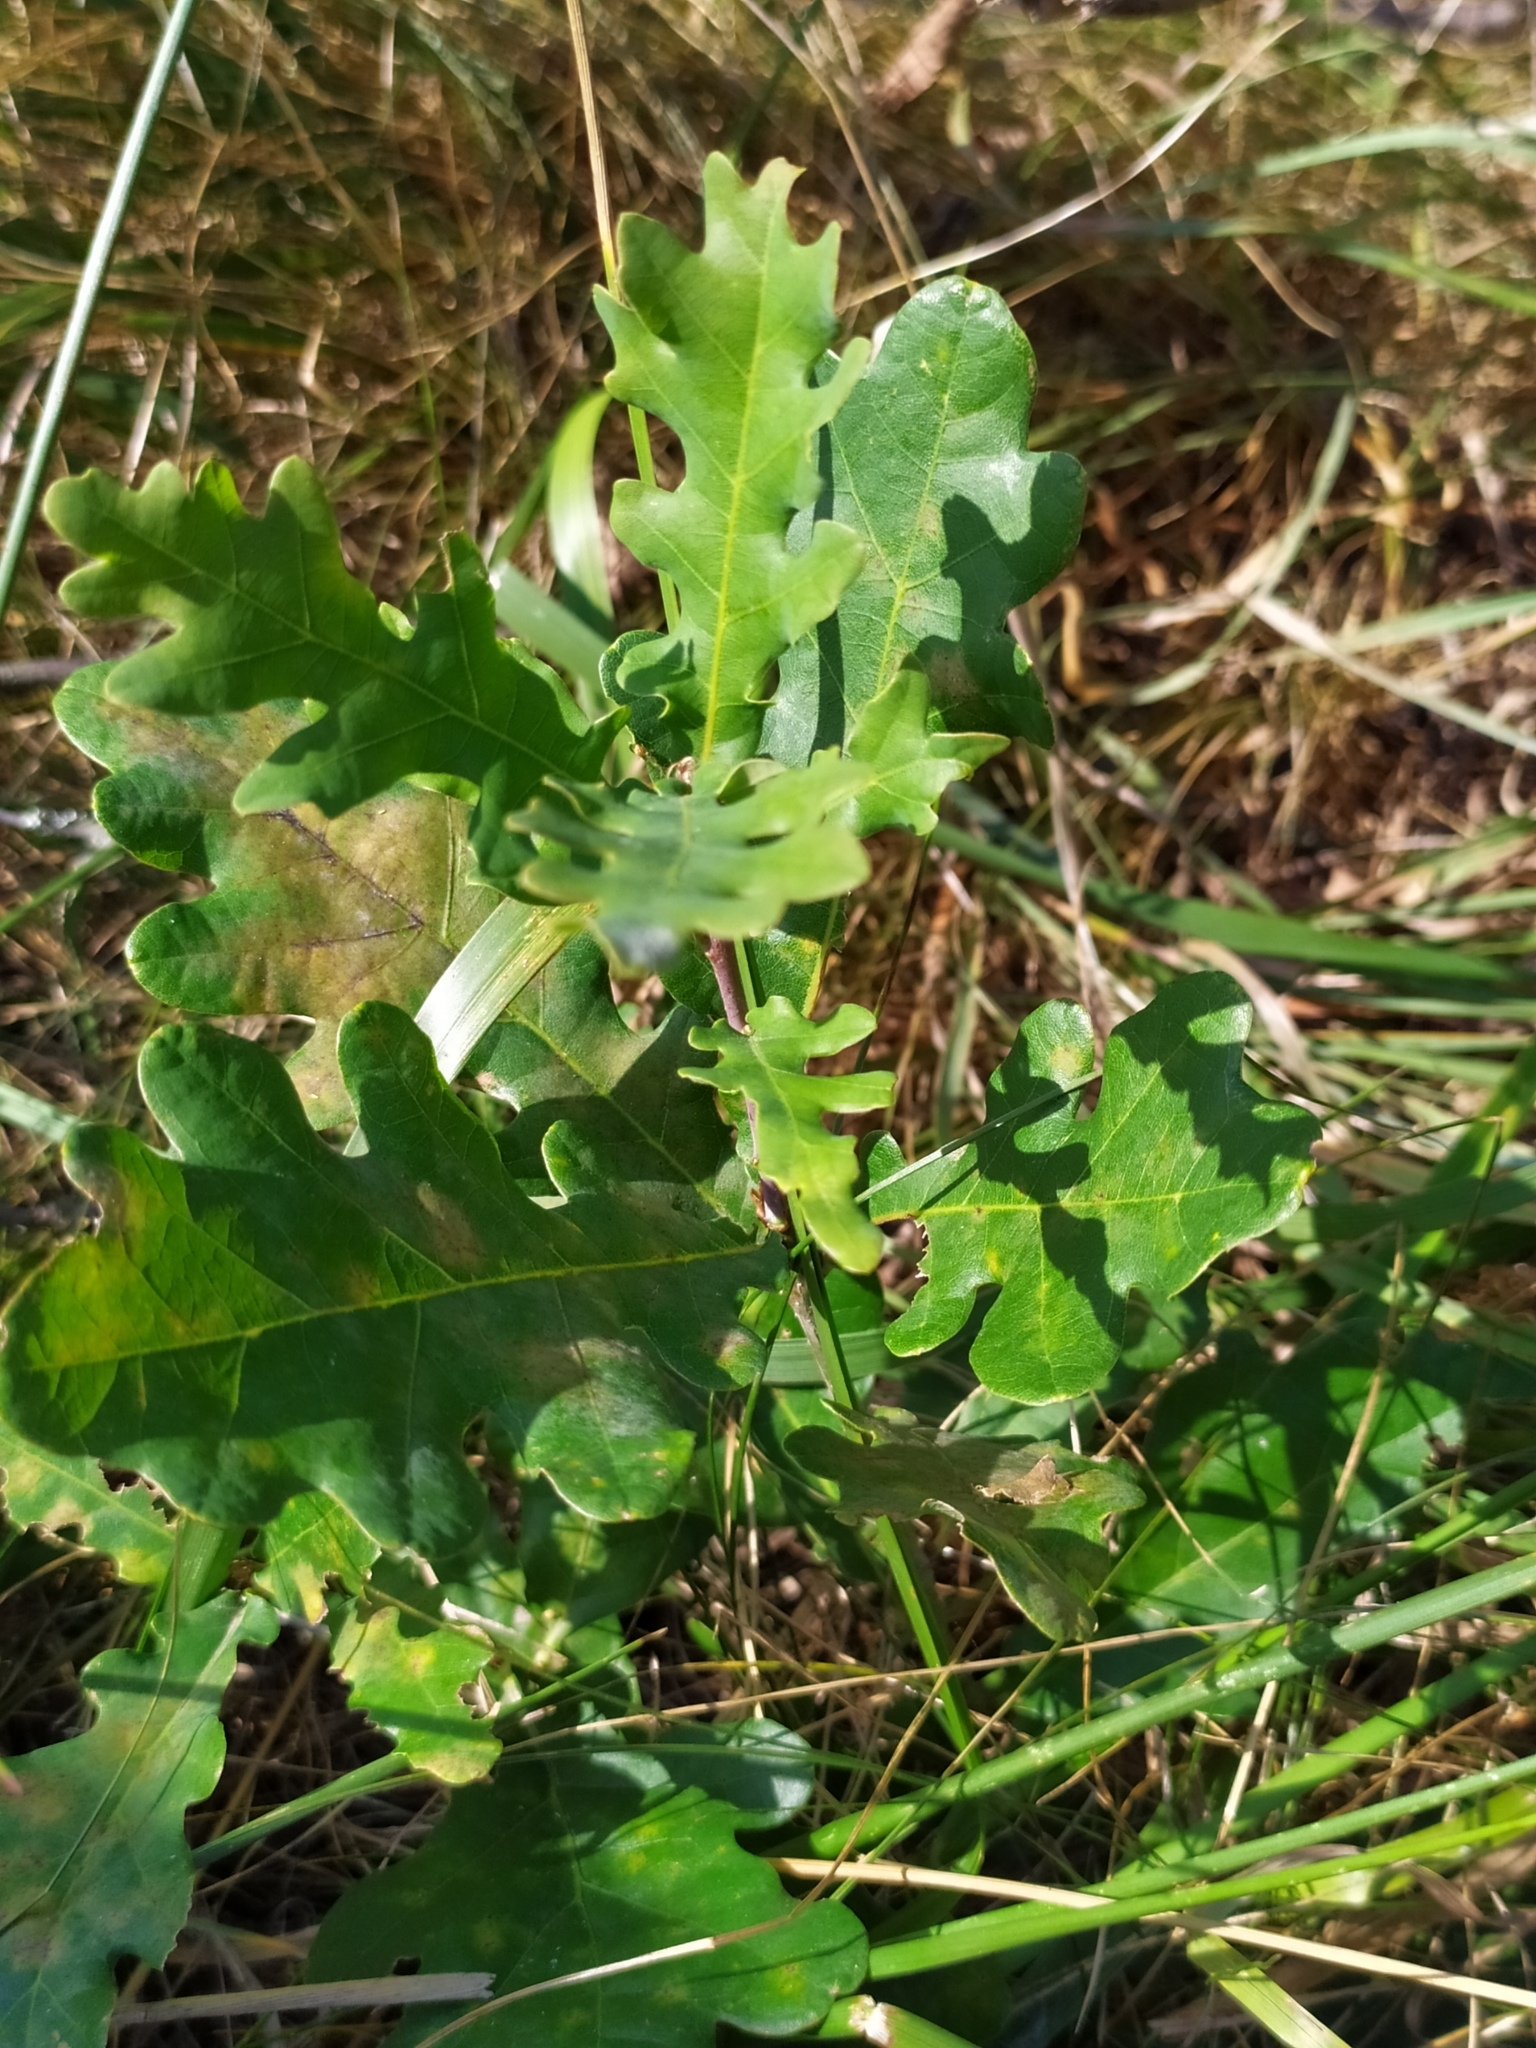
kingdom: Plantae
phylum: Tracheophyta
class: Magnoliopsida
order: Fagales
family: Fagaceae
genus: Quercus
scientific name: Quercus robur
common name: Pedunculate oak
